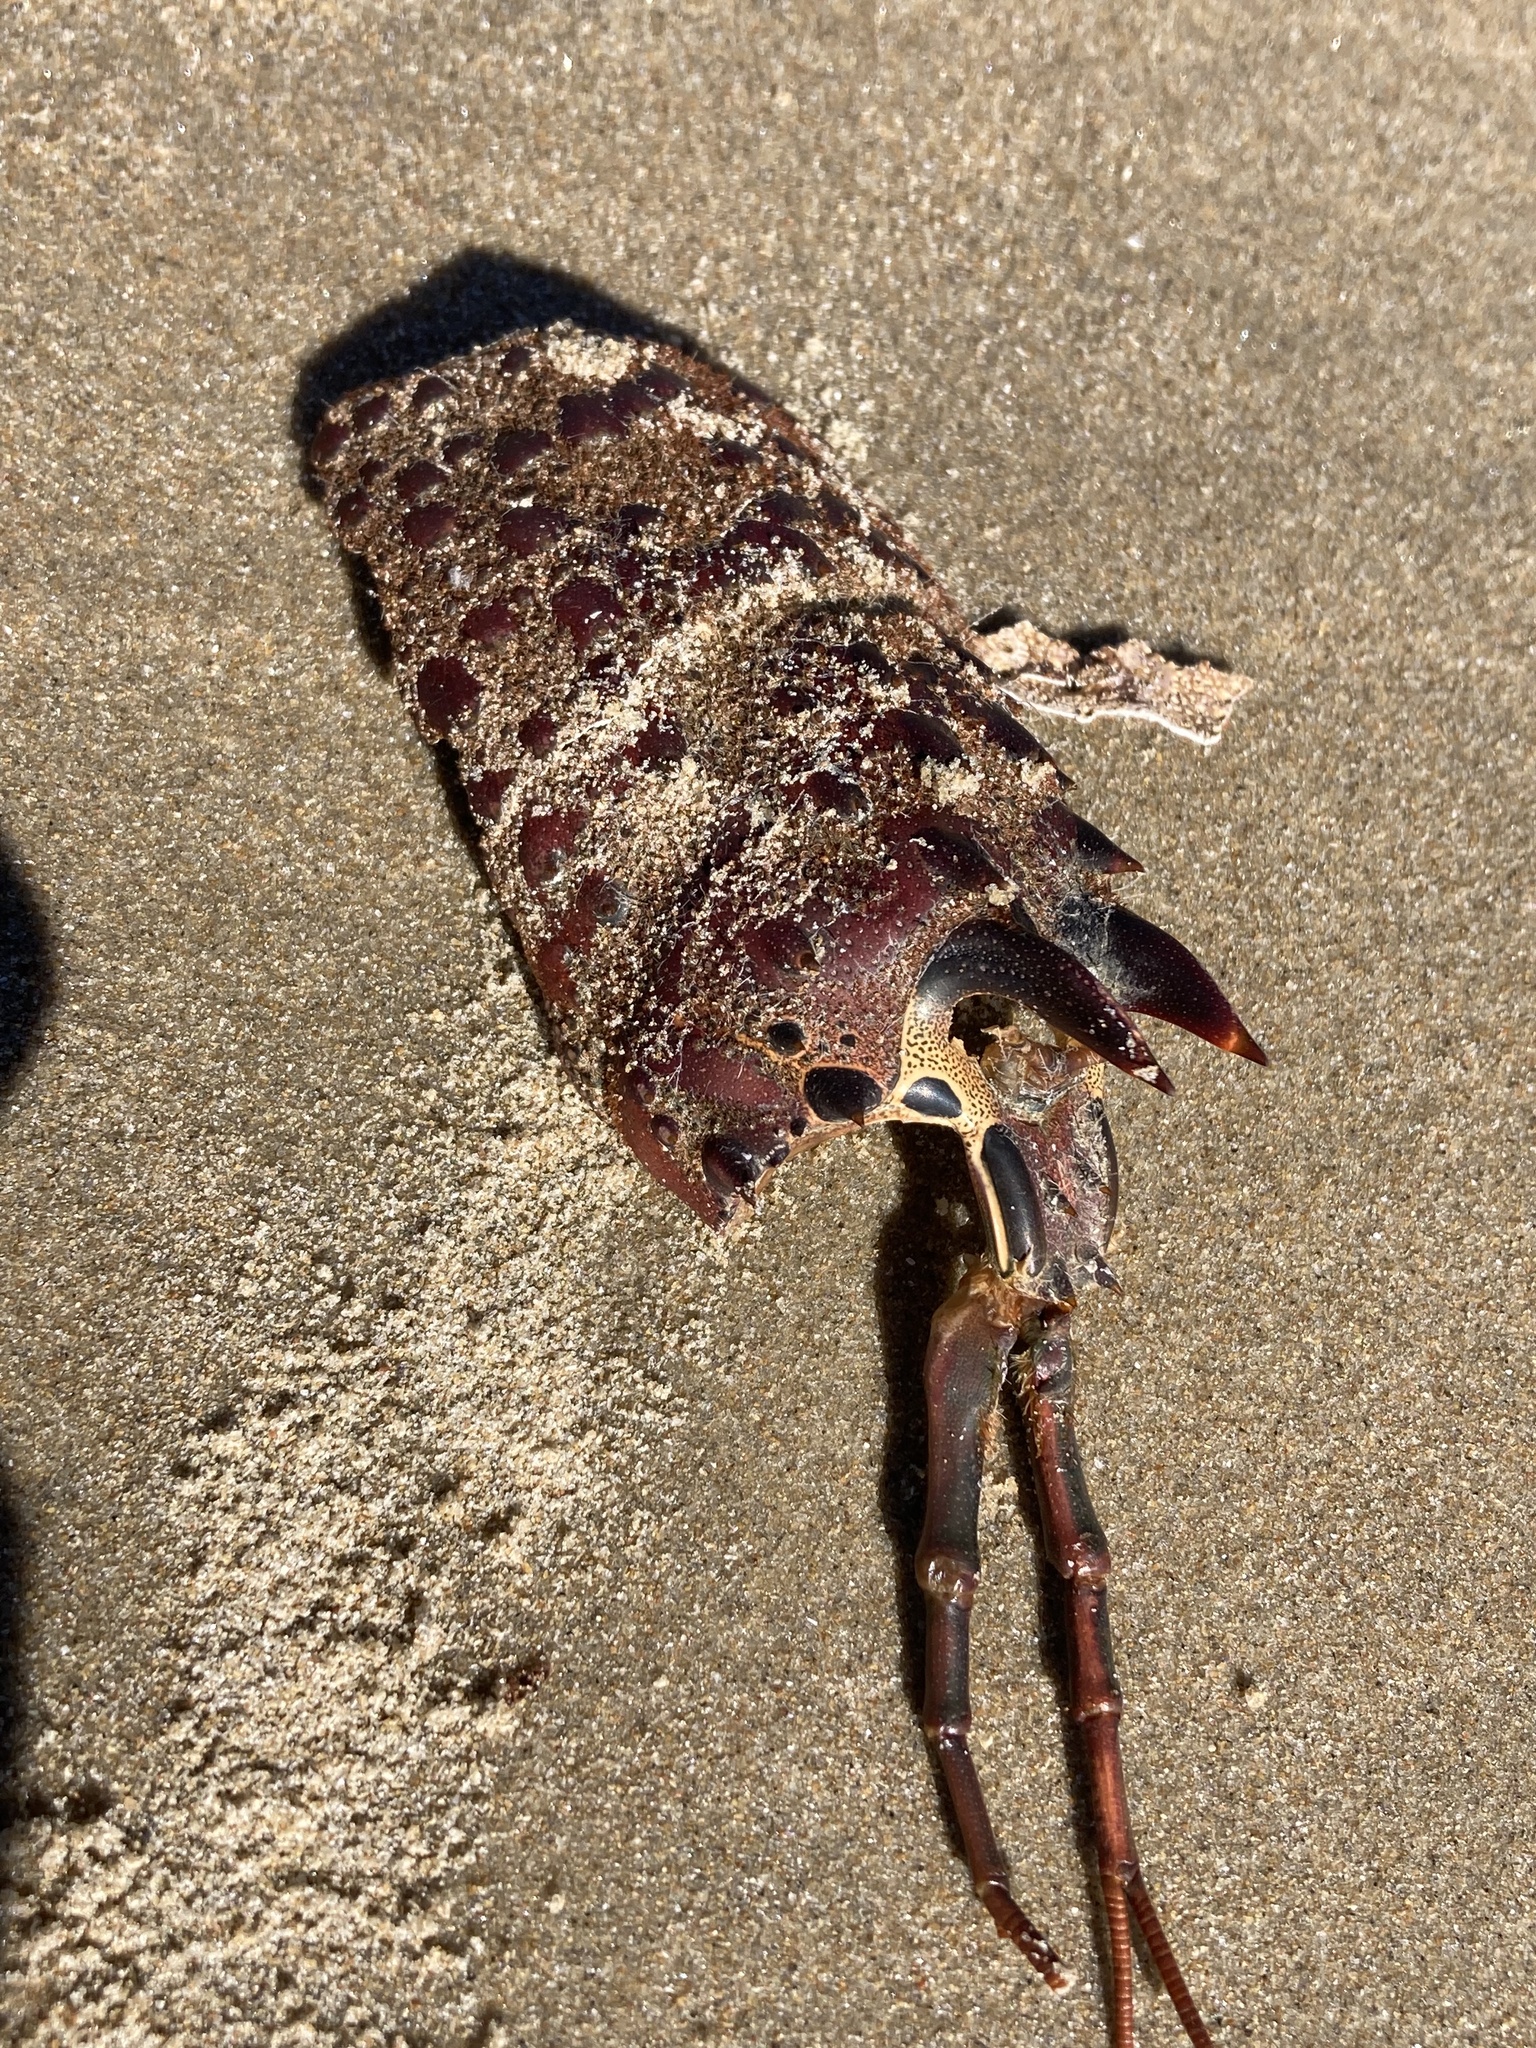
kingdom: Animalia
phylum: Arthropoda
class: Malacostraca
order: Decapoda
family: Palinuridae
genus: Panulirus
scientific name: Panulirus interruptus
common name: California spiny lobster
